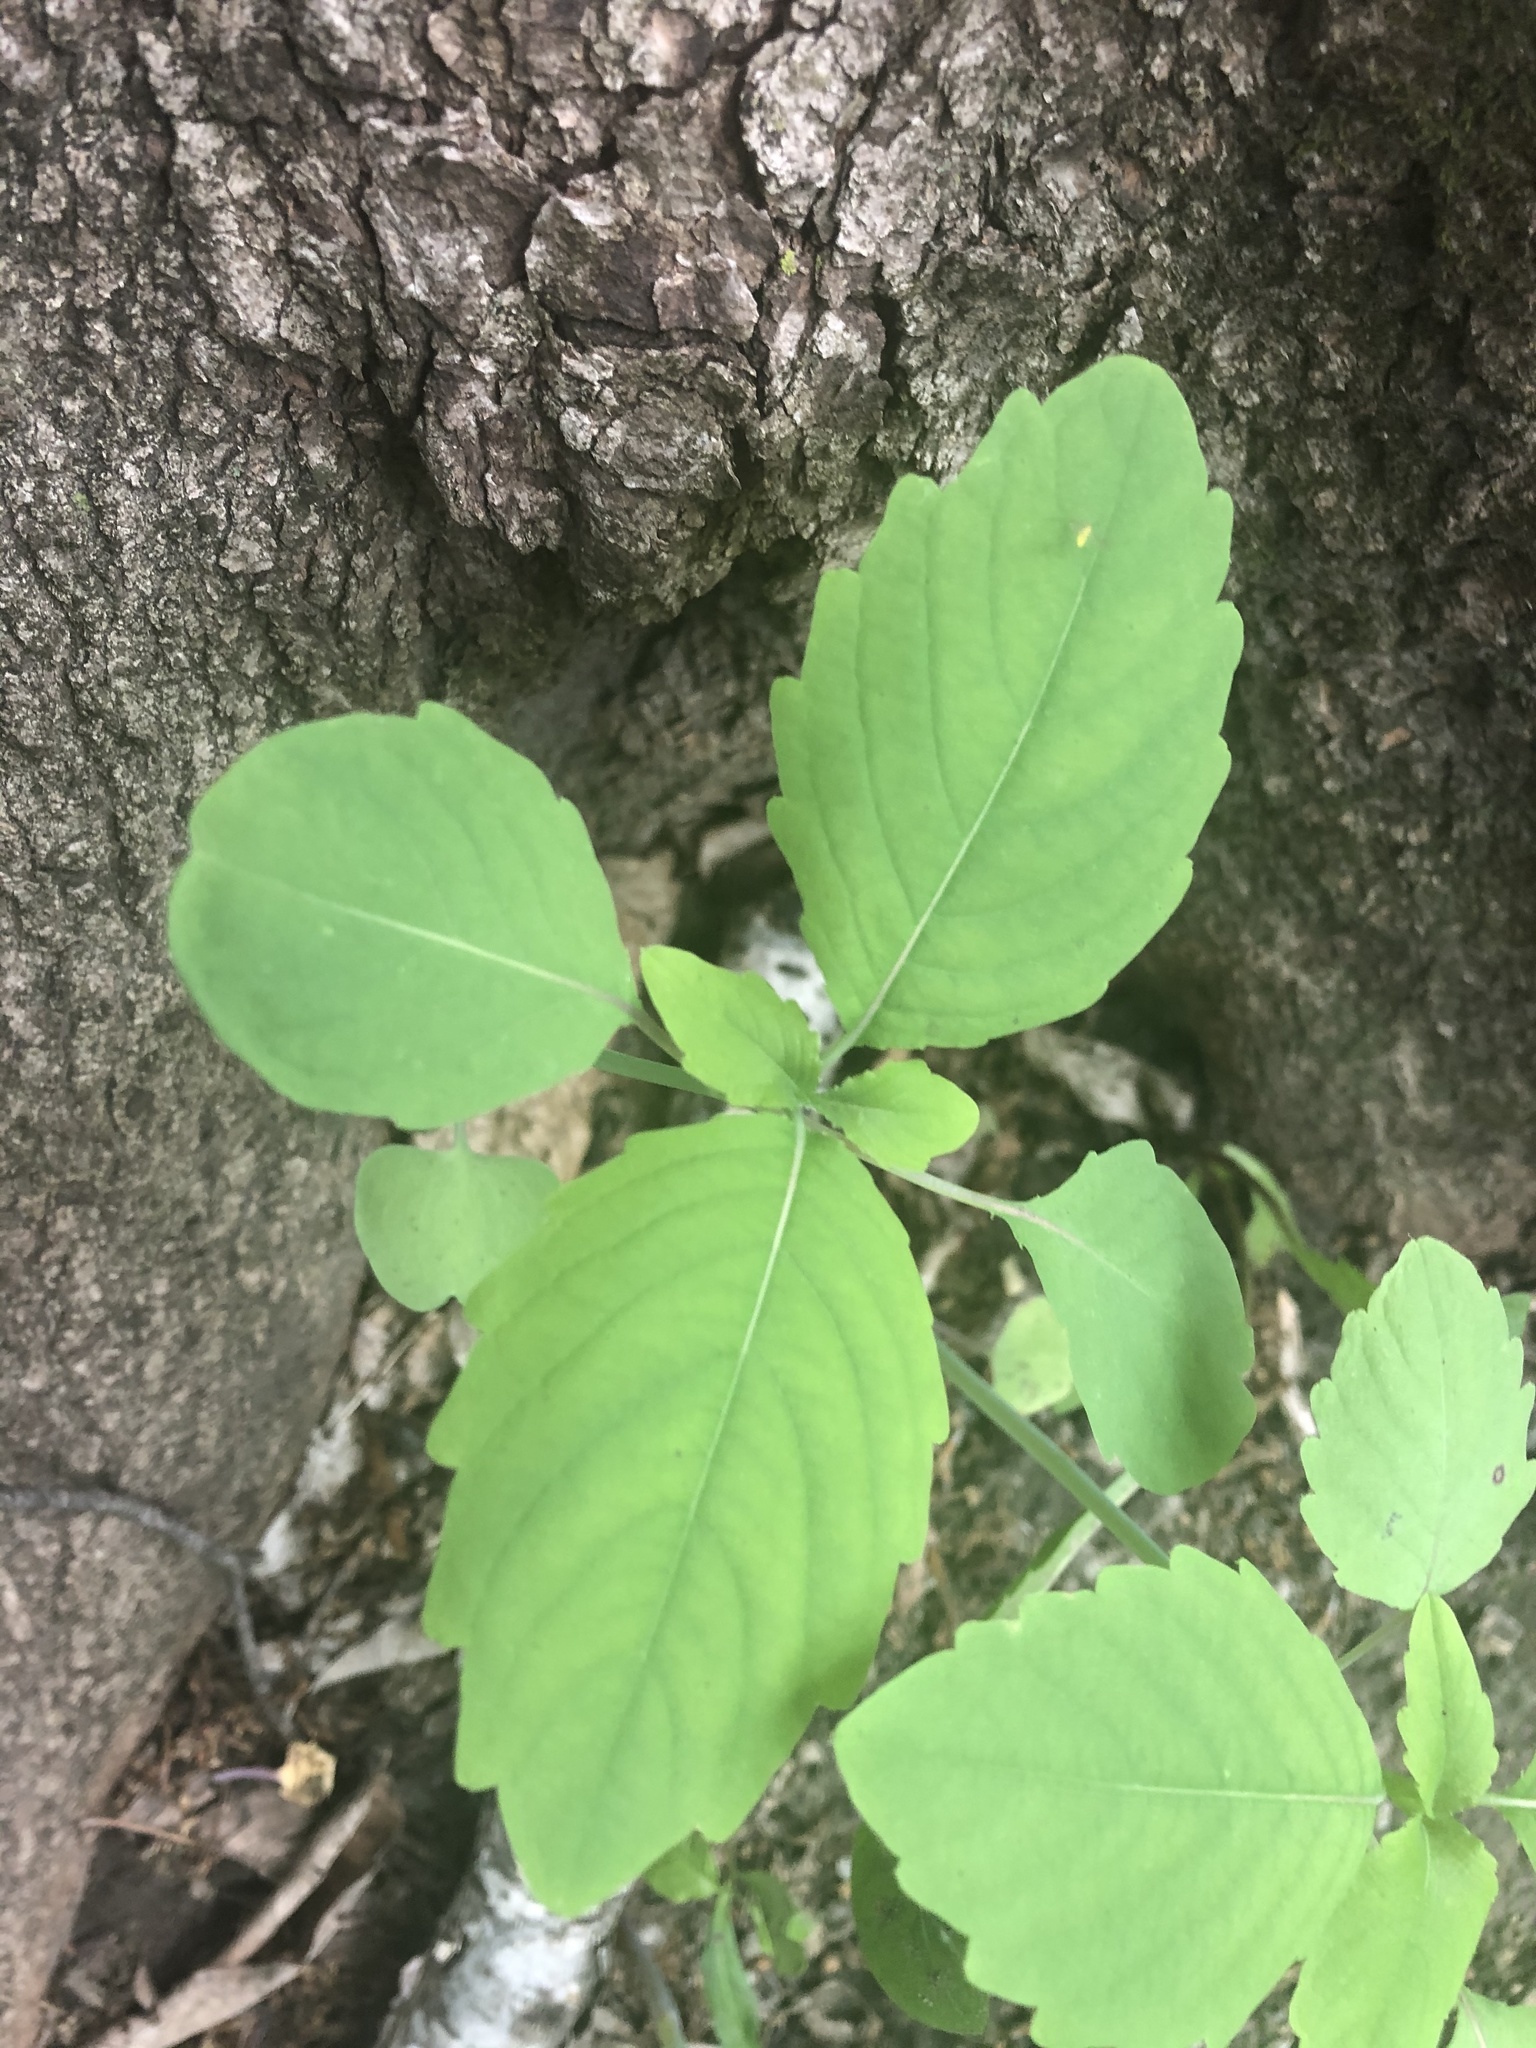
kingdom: Plantae
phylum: Tracheophyta
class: Magnoliopsida
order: Ericales
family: Balsaminaceae
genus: Impatiens
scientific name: Impatiens capensis
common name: Orange balsam
